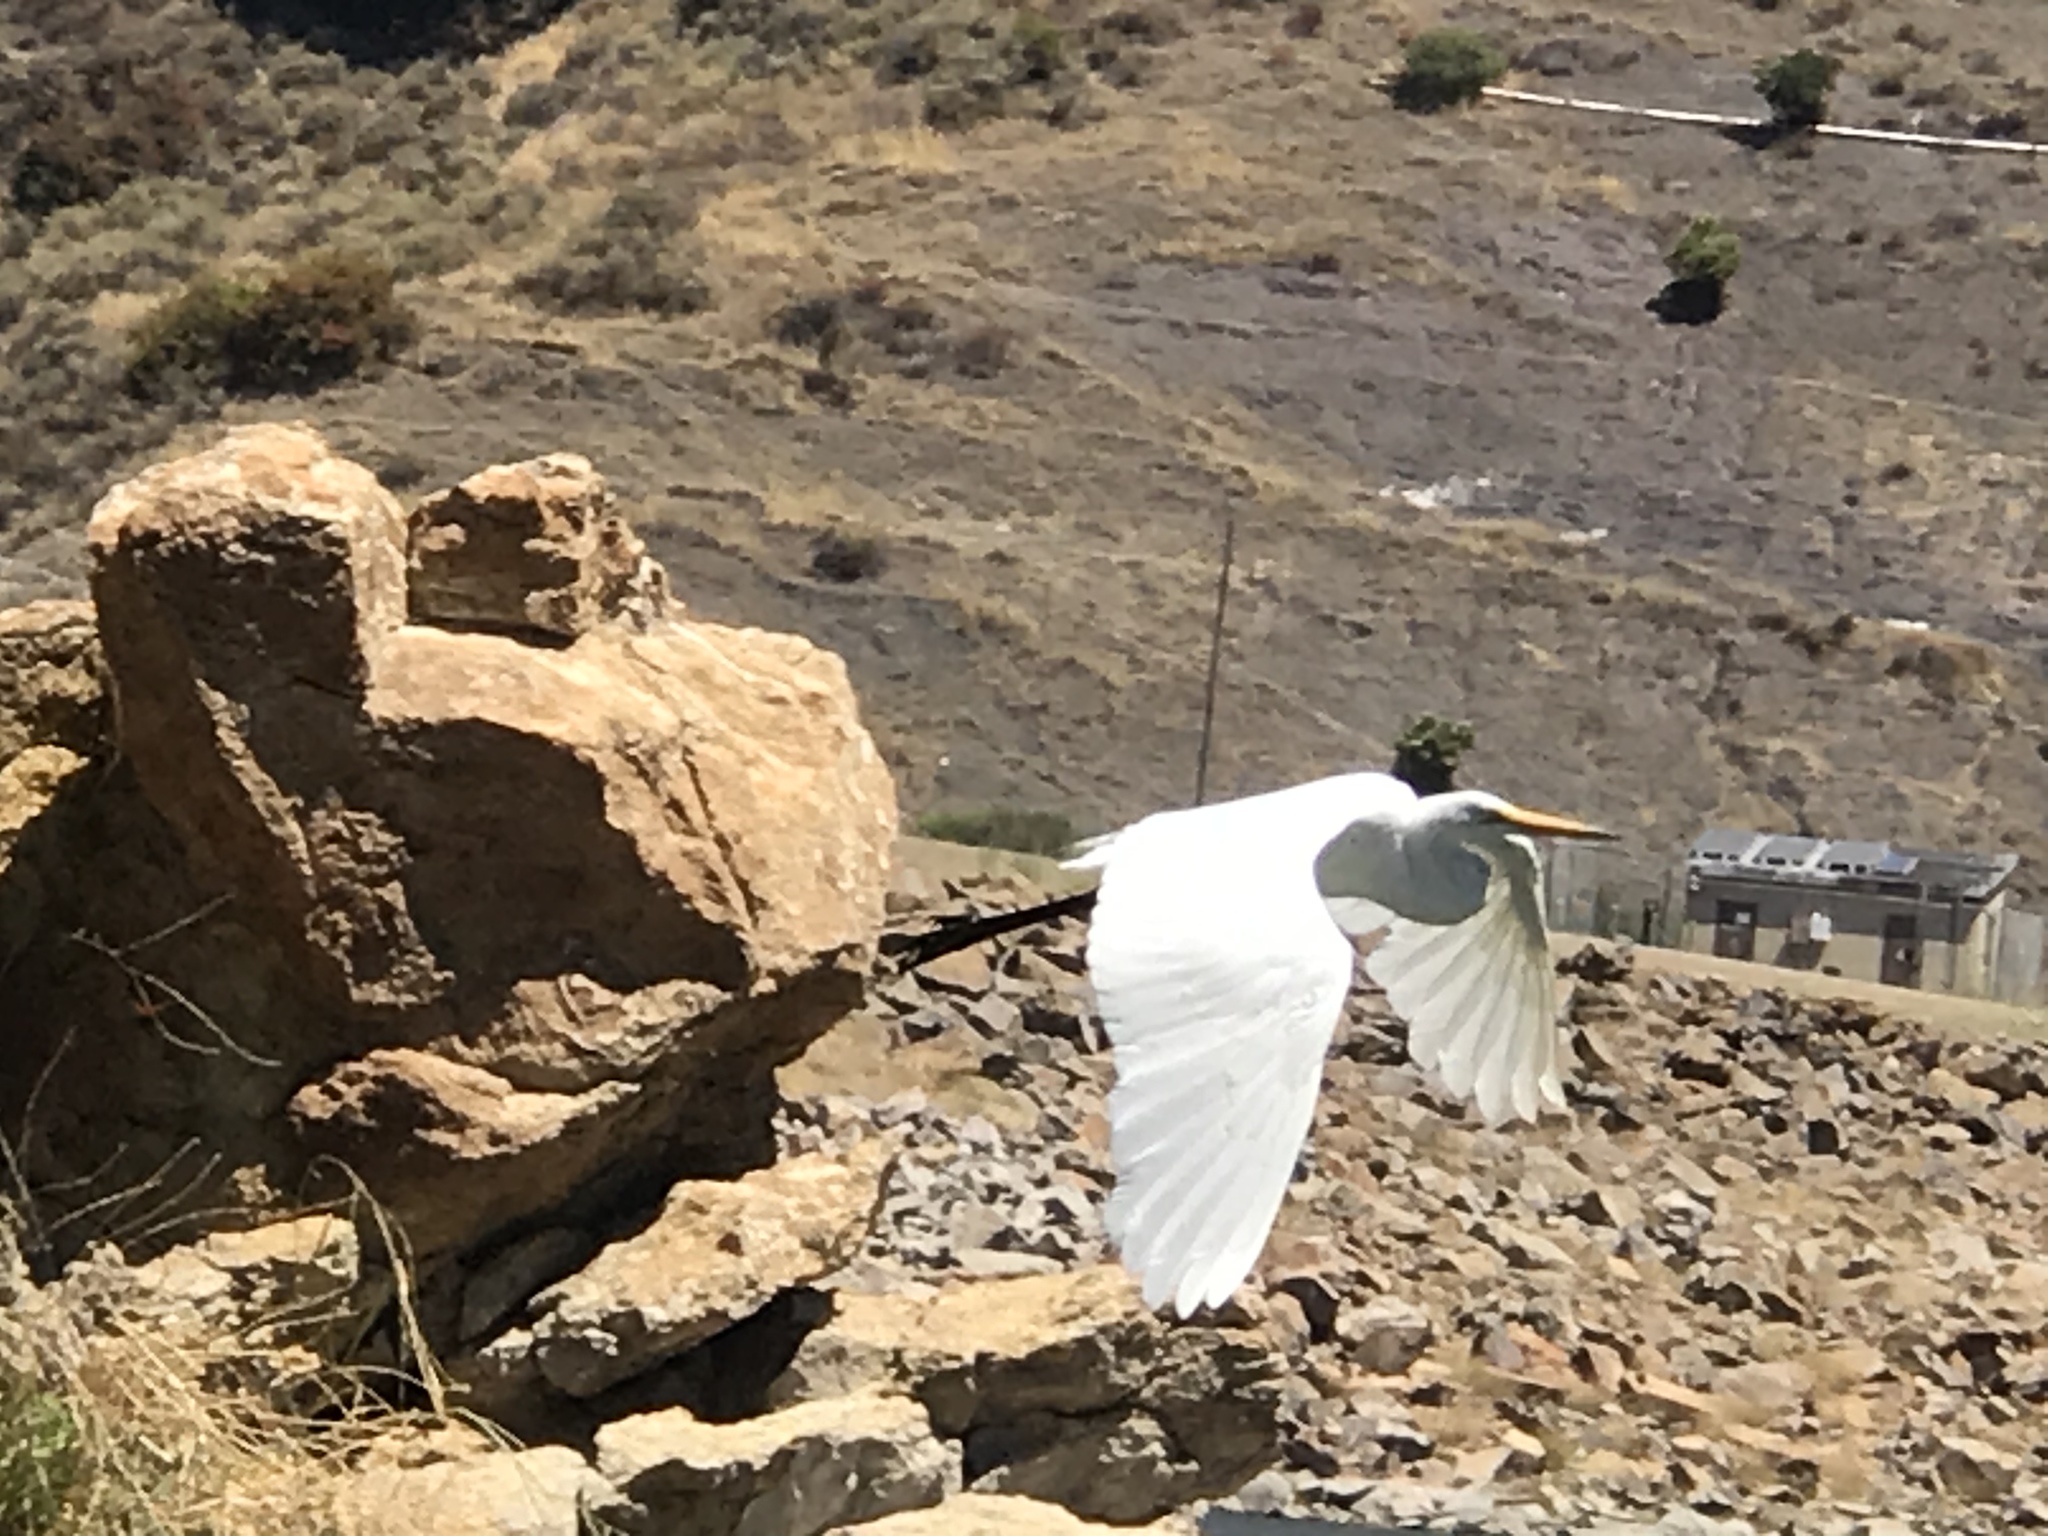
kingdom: Animalia
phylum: Chordata
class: Aves
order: Pelecaniformes
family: Ardeidae
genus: Ardea
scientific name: Ardea alba
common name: Great egret
